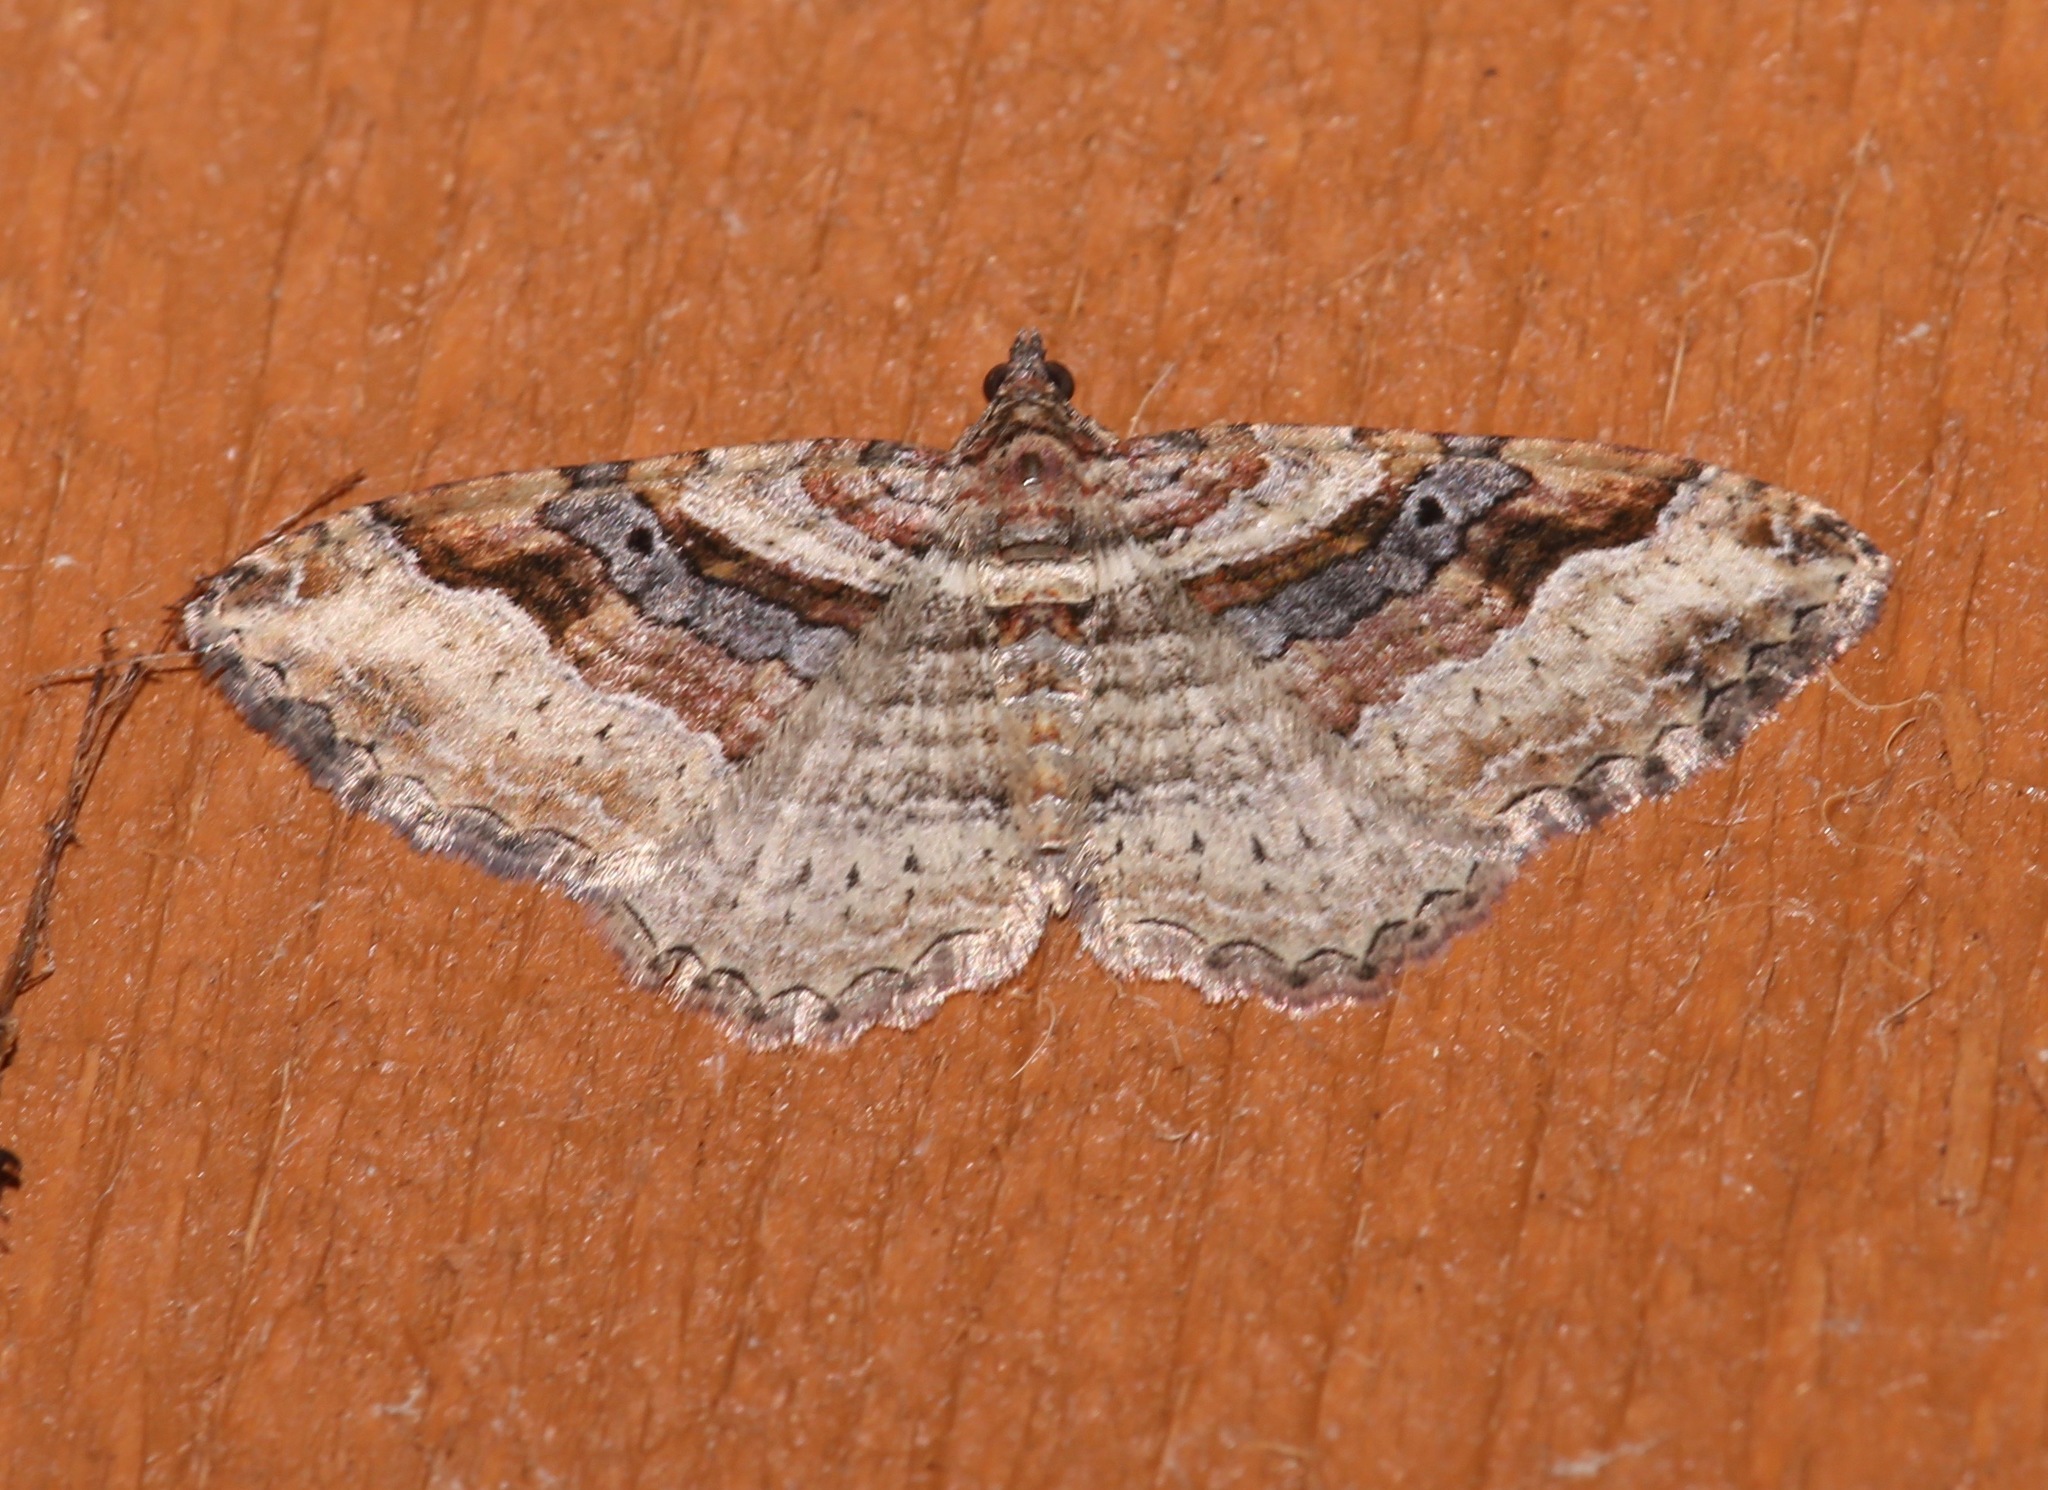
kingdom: Animalia
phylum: Arthropoda
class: Insecta
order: Lepidoptera
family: Geometridae
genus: Costaconvexa
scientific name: Costaconvexa centrostrigaria
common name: Bent-line carpet
